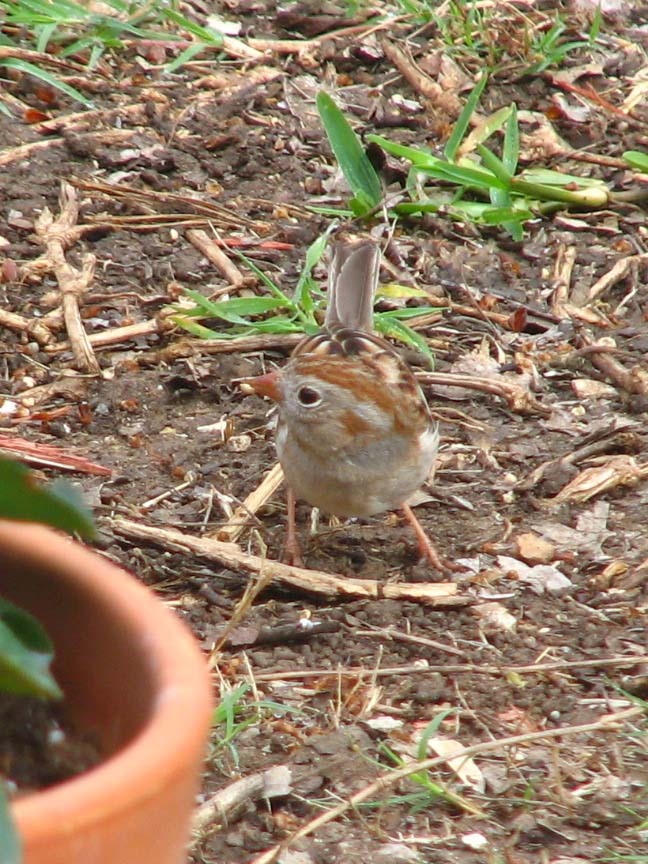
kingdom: Animalia
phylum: Chordata
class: Aves
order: Passeriformes
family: Passerellidae
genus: Spizella
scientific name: Spizella pusilla
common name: Field sparrow
